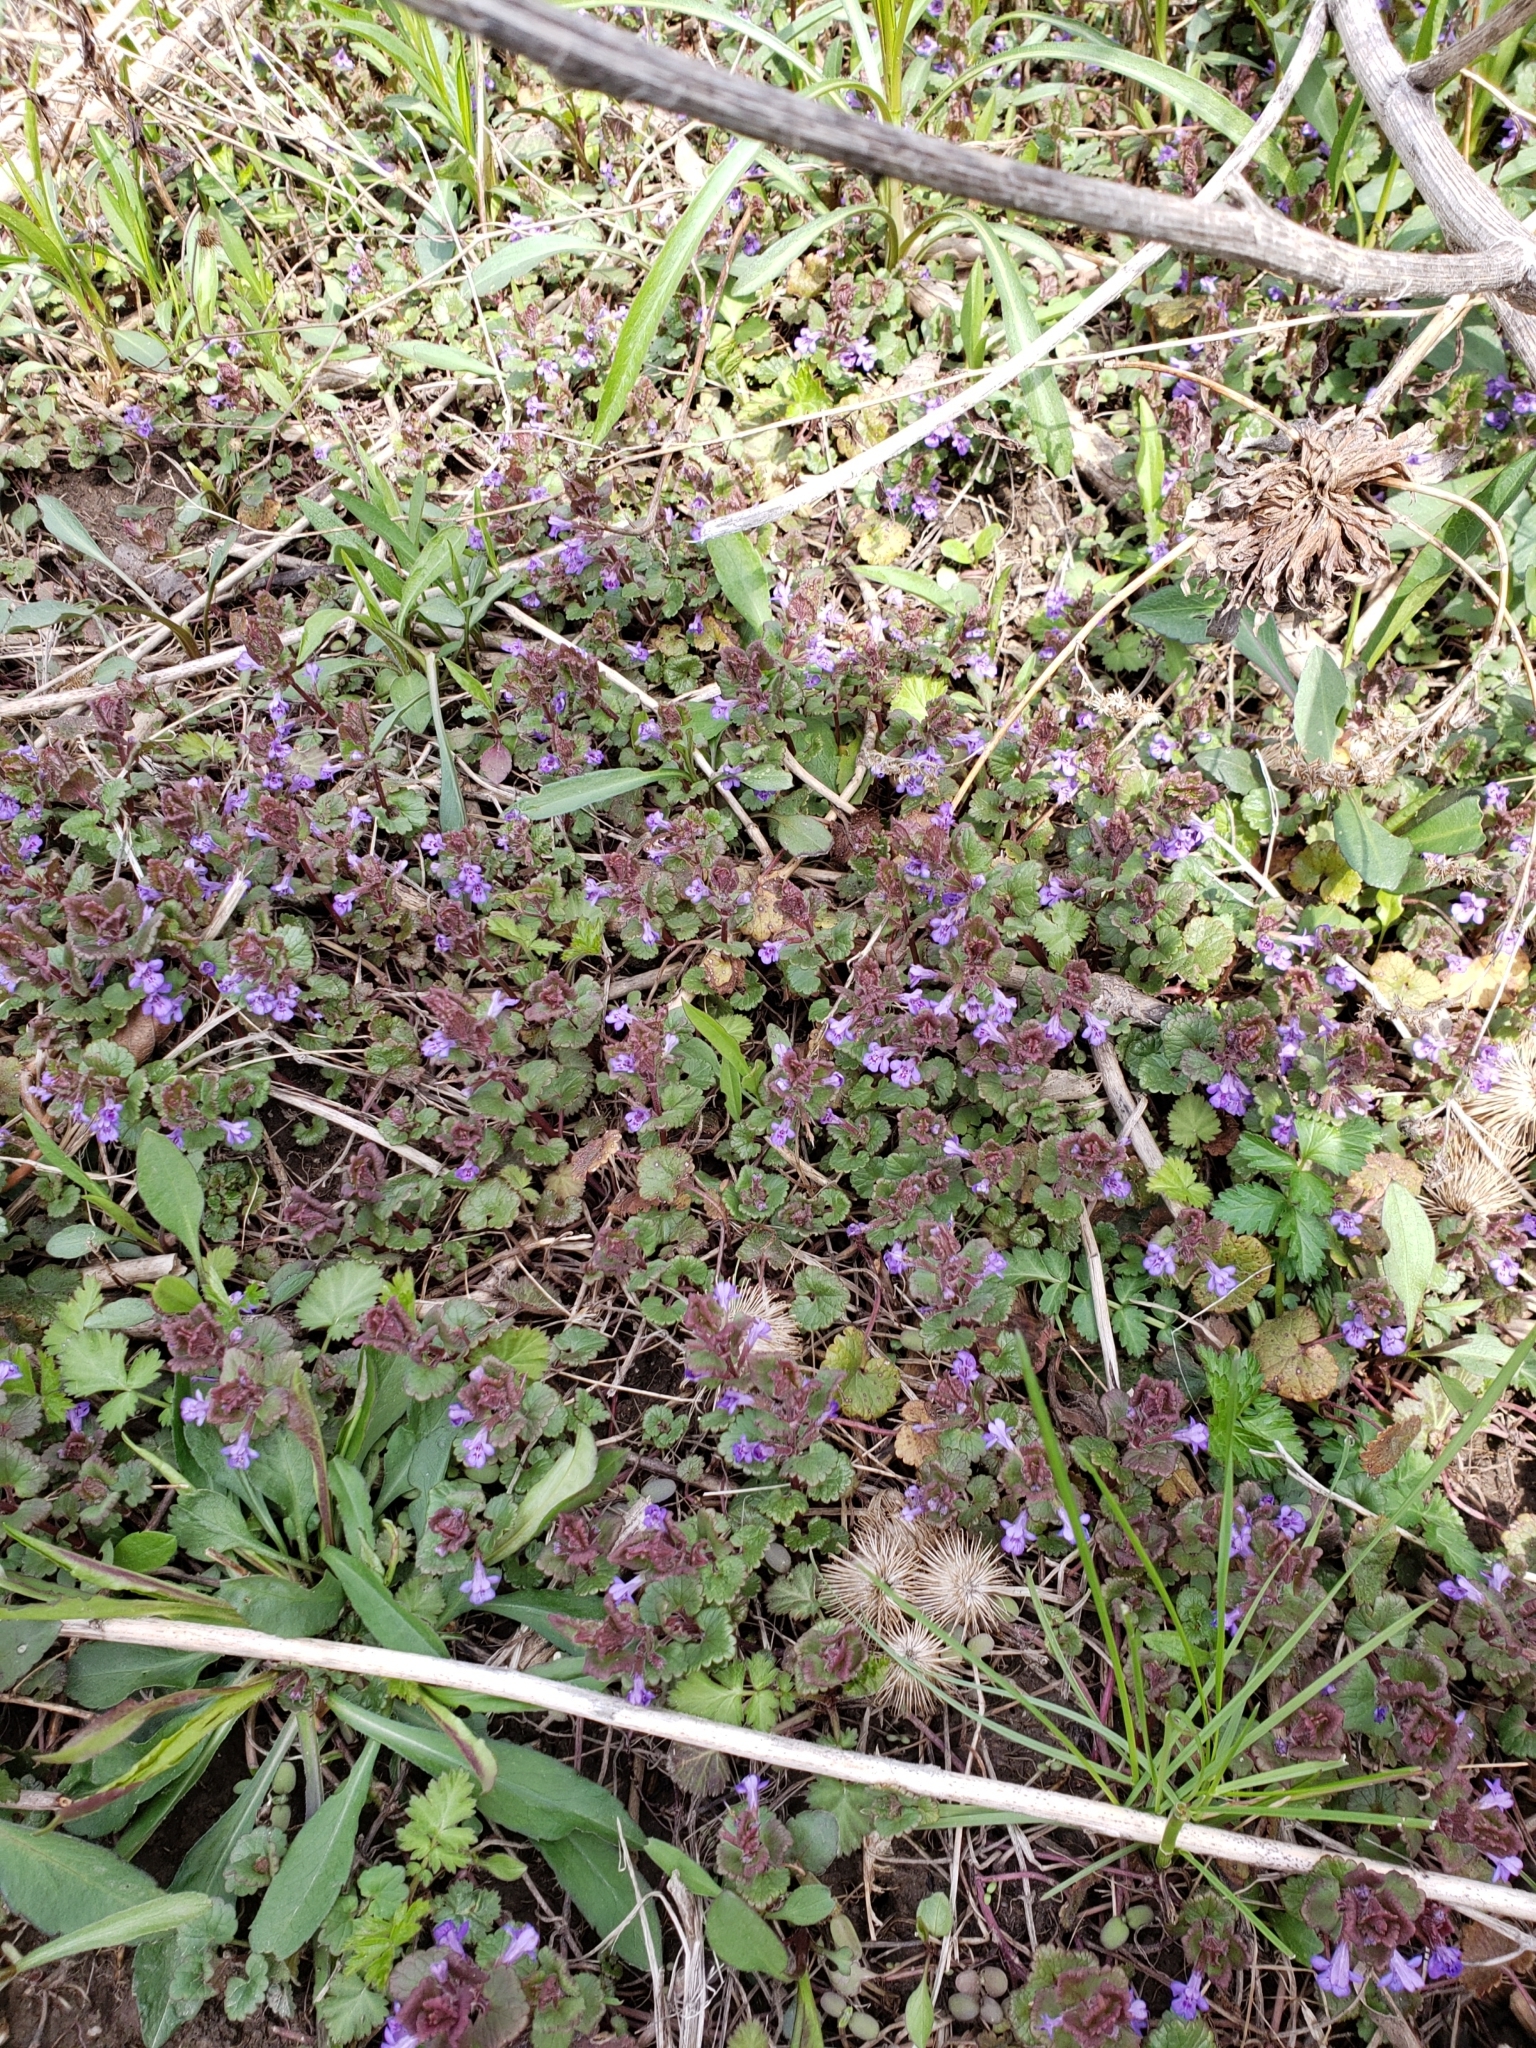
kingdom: Plantae
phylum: Tracheophyta
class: Magnoliopsida
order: Lamiales
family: Lamiaceae
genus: Glechoma
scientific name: Glechoma hederacea
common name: Ground ivy
